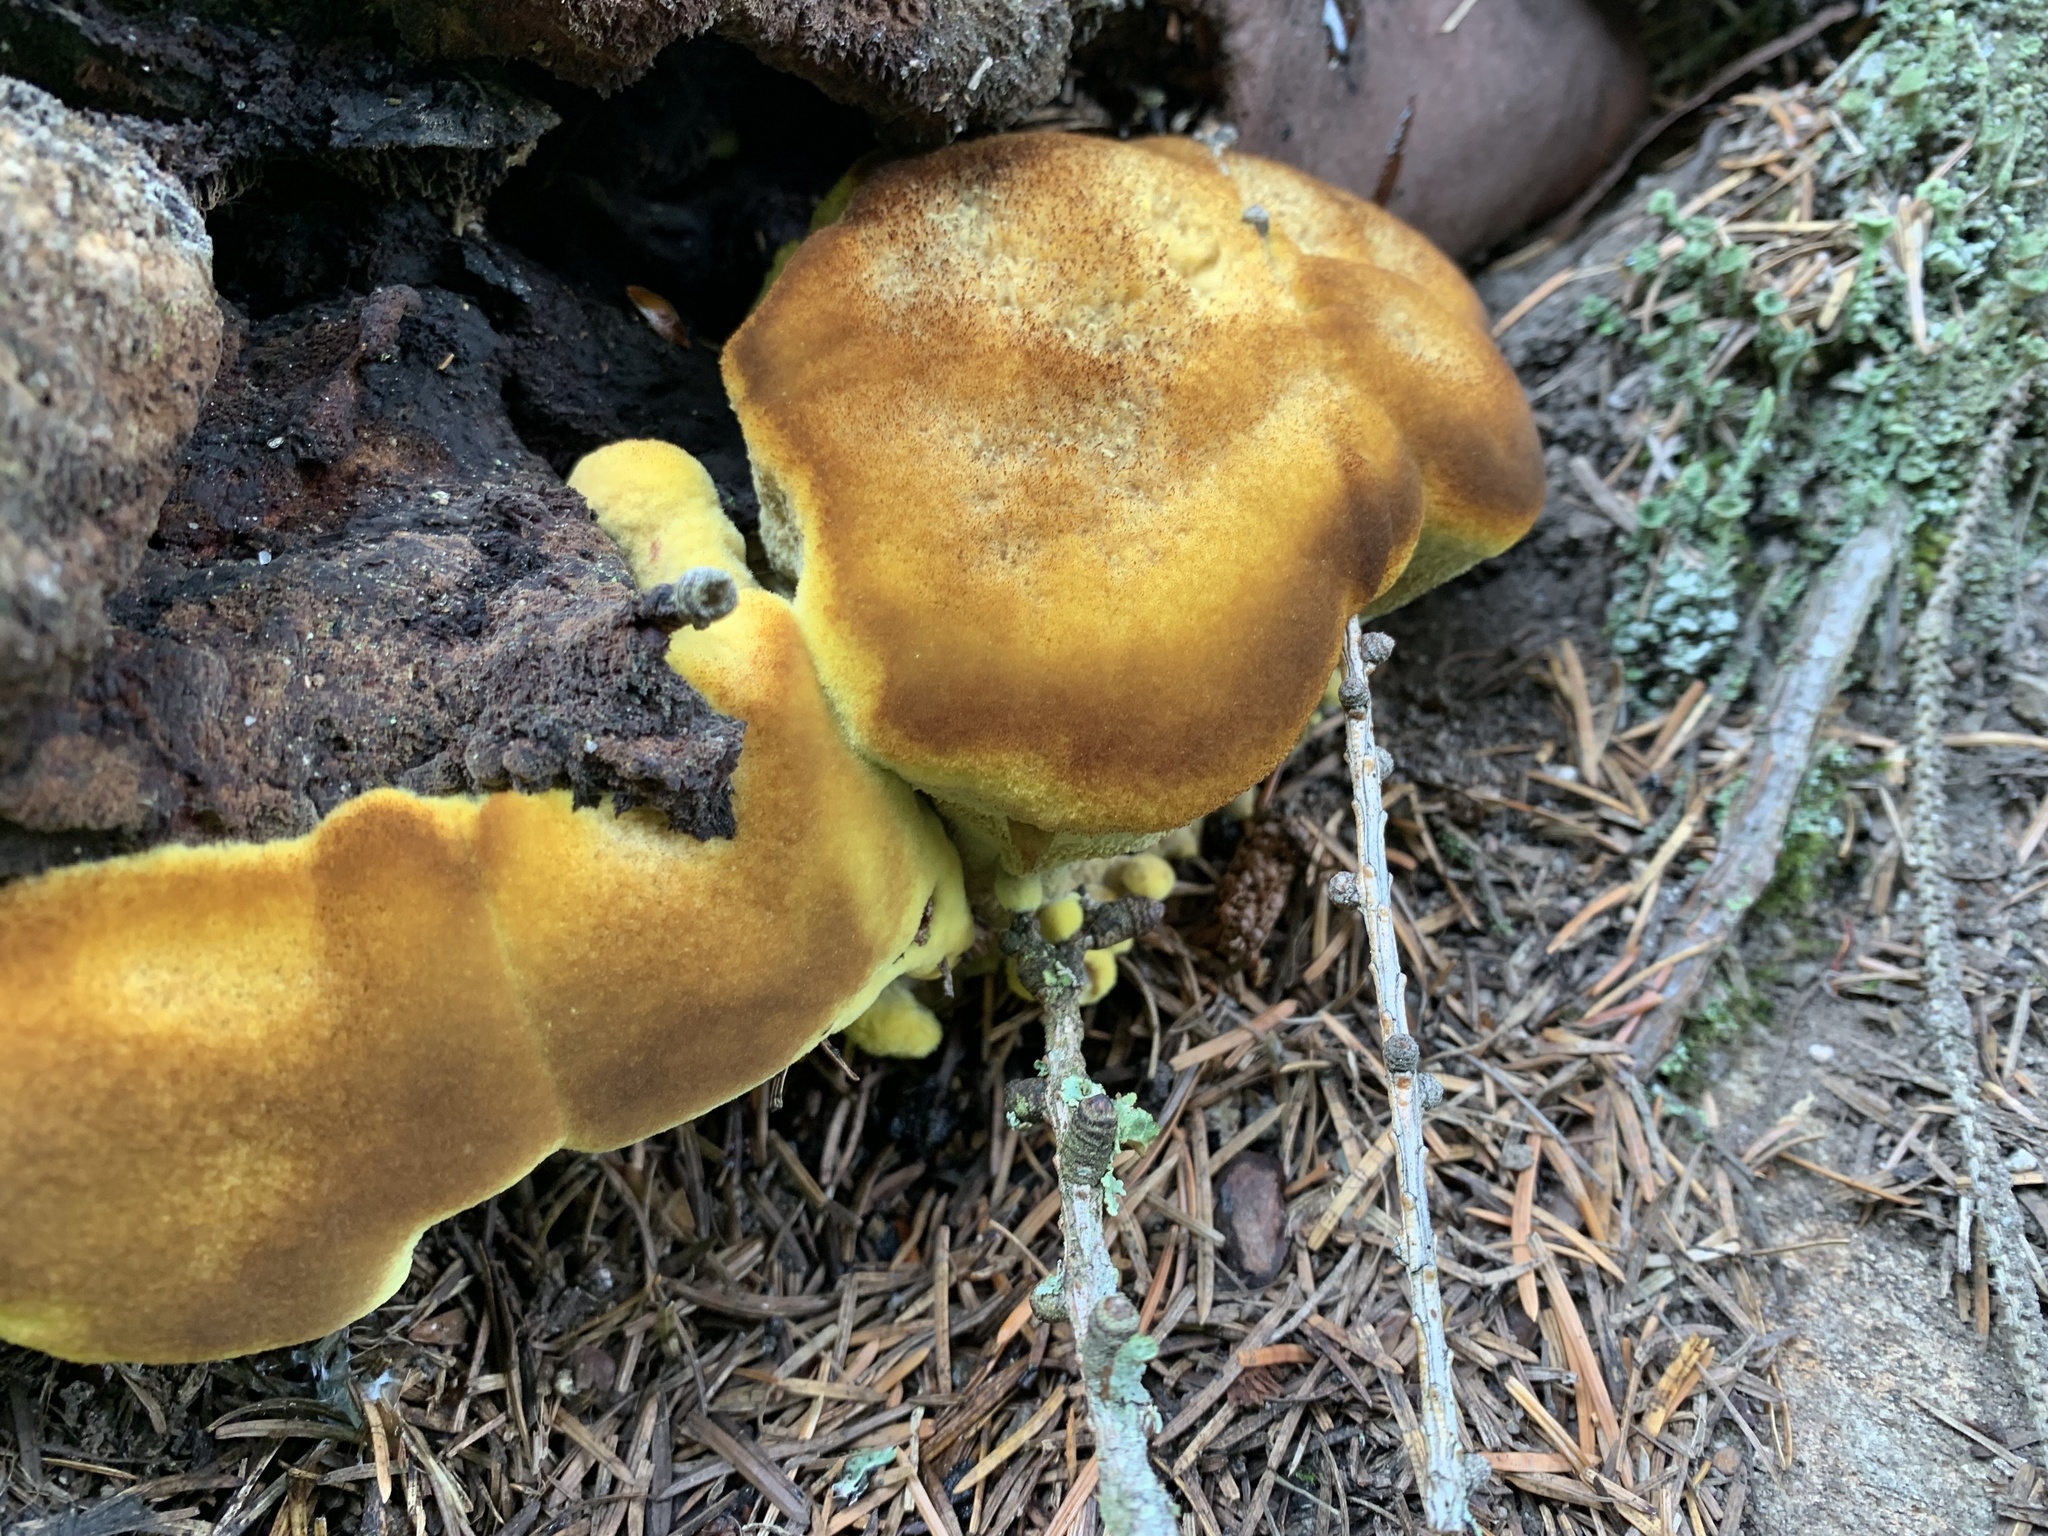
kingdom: Fungi
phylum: Basidiomycota
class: Agaricomycetes
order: Polyporales
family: Laetiporaceae
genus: Phaeolus
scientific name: Phaeolus schweinitzii
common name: Dyer's mazegill
